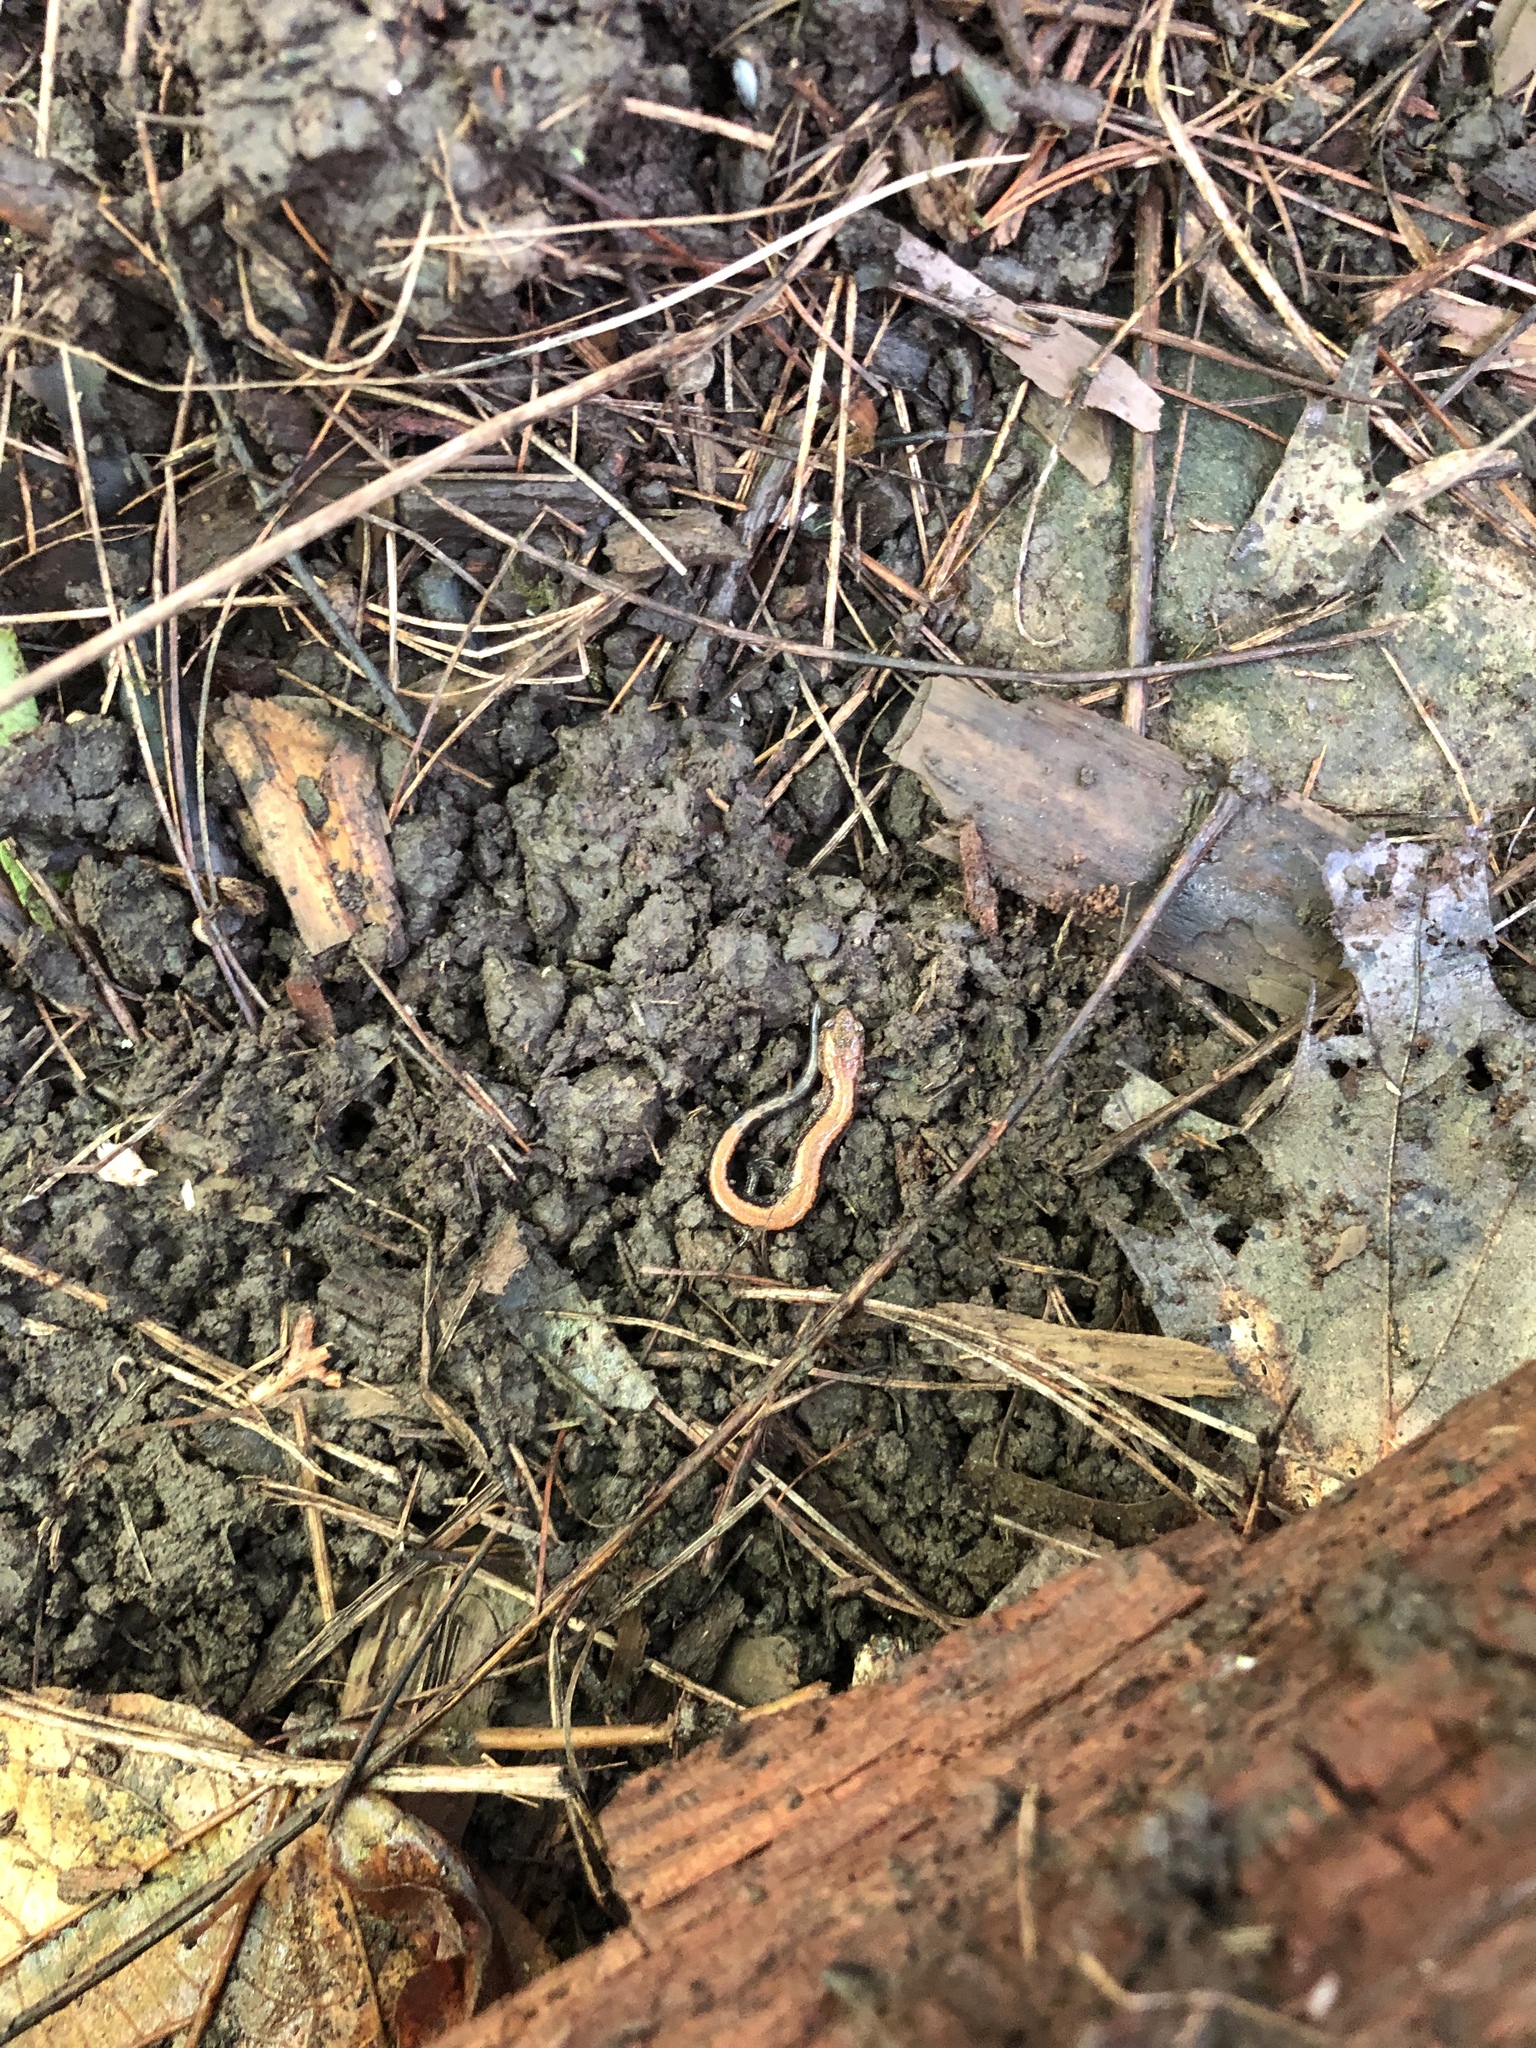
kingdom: Animalia
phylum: Chordata
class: Amphibia
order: Caudata
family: Plethodontidae
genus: Plethodon
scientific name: Plethodon cinereus
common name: Redback salamander
